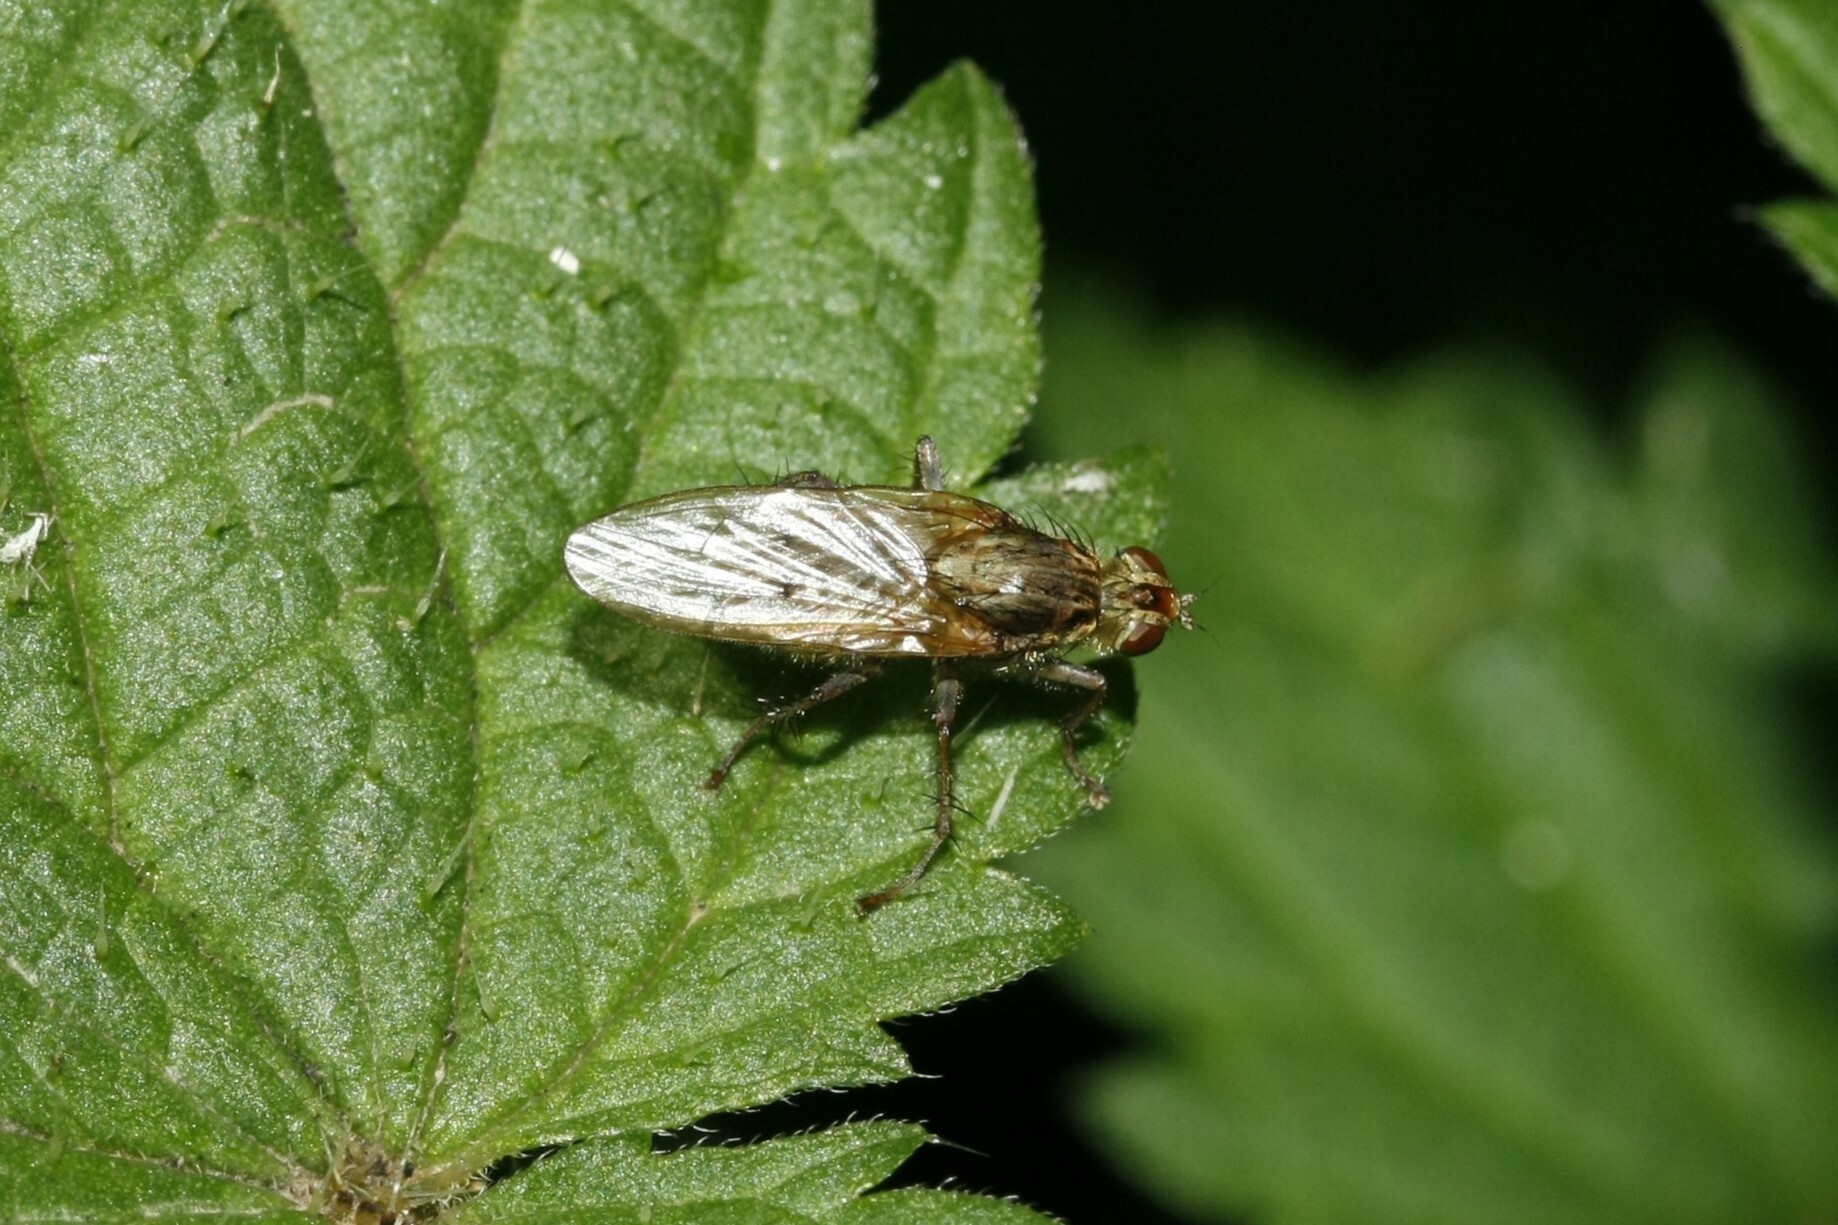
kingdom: Animalia
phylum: Arthropoda
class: Insecta
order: Diptera
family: Scathophagidae
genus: Scathophaga
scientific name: Scathophaga stercoraria
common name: Yellow dung fly
